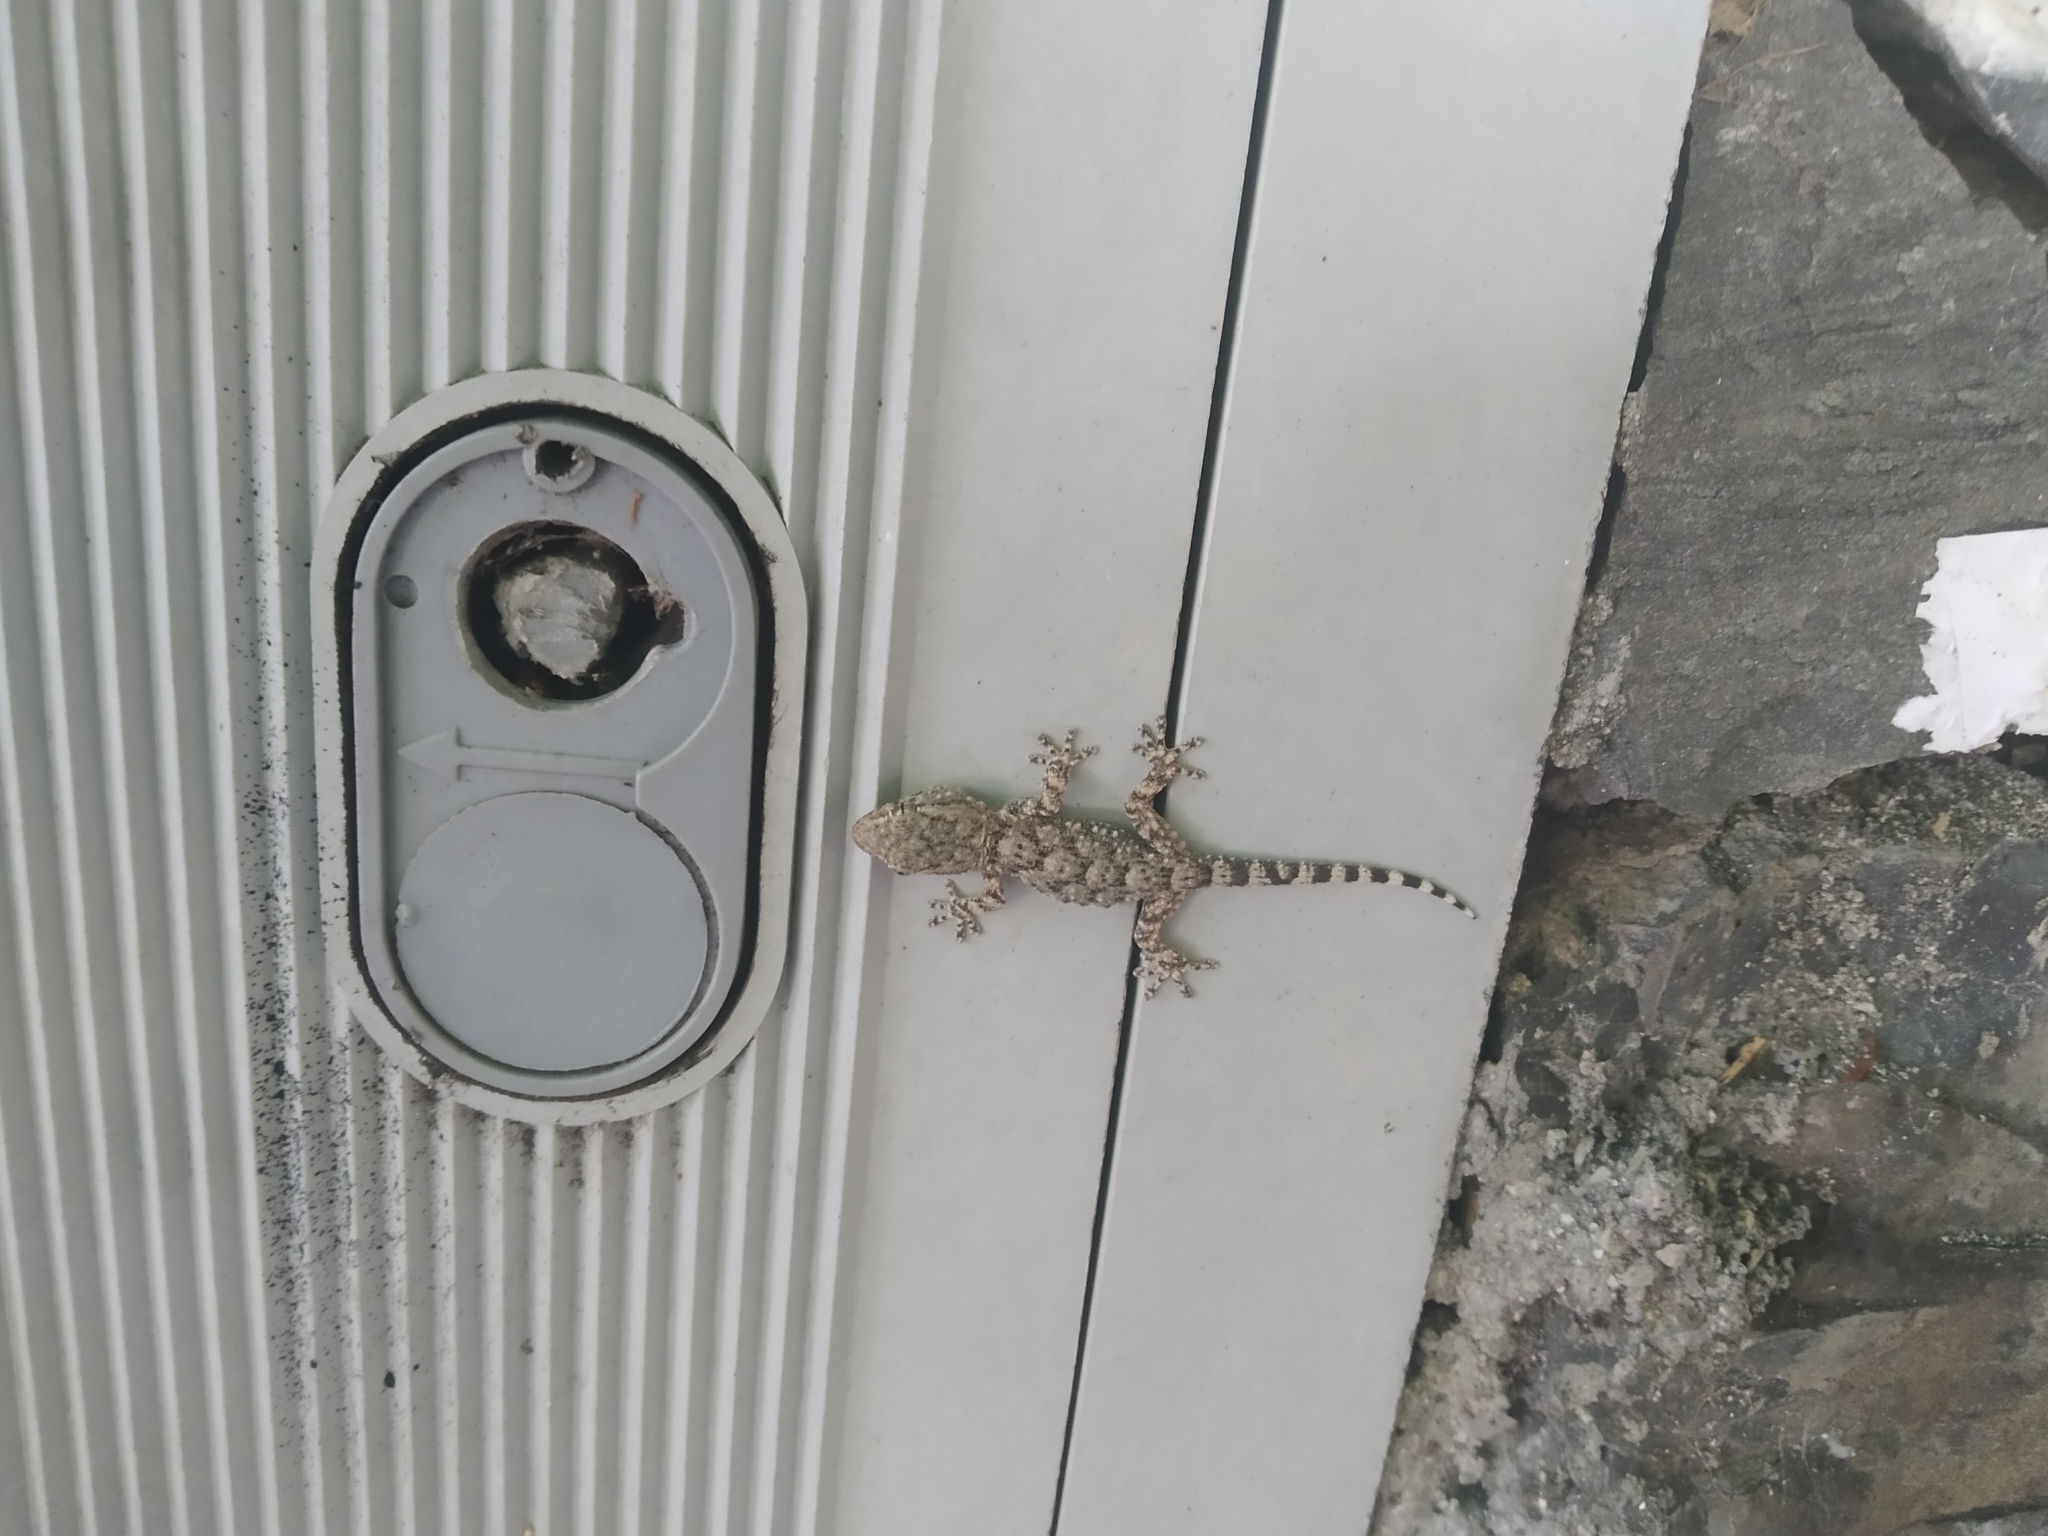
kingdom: Animalia
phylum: Chordata
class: Squamata
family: Phyllodactylidae
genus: Tarentola
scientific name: Tarentola mauritanica
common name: Moorish gecko
